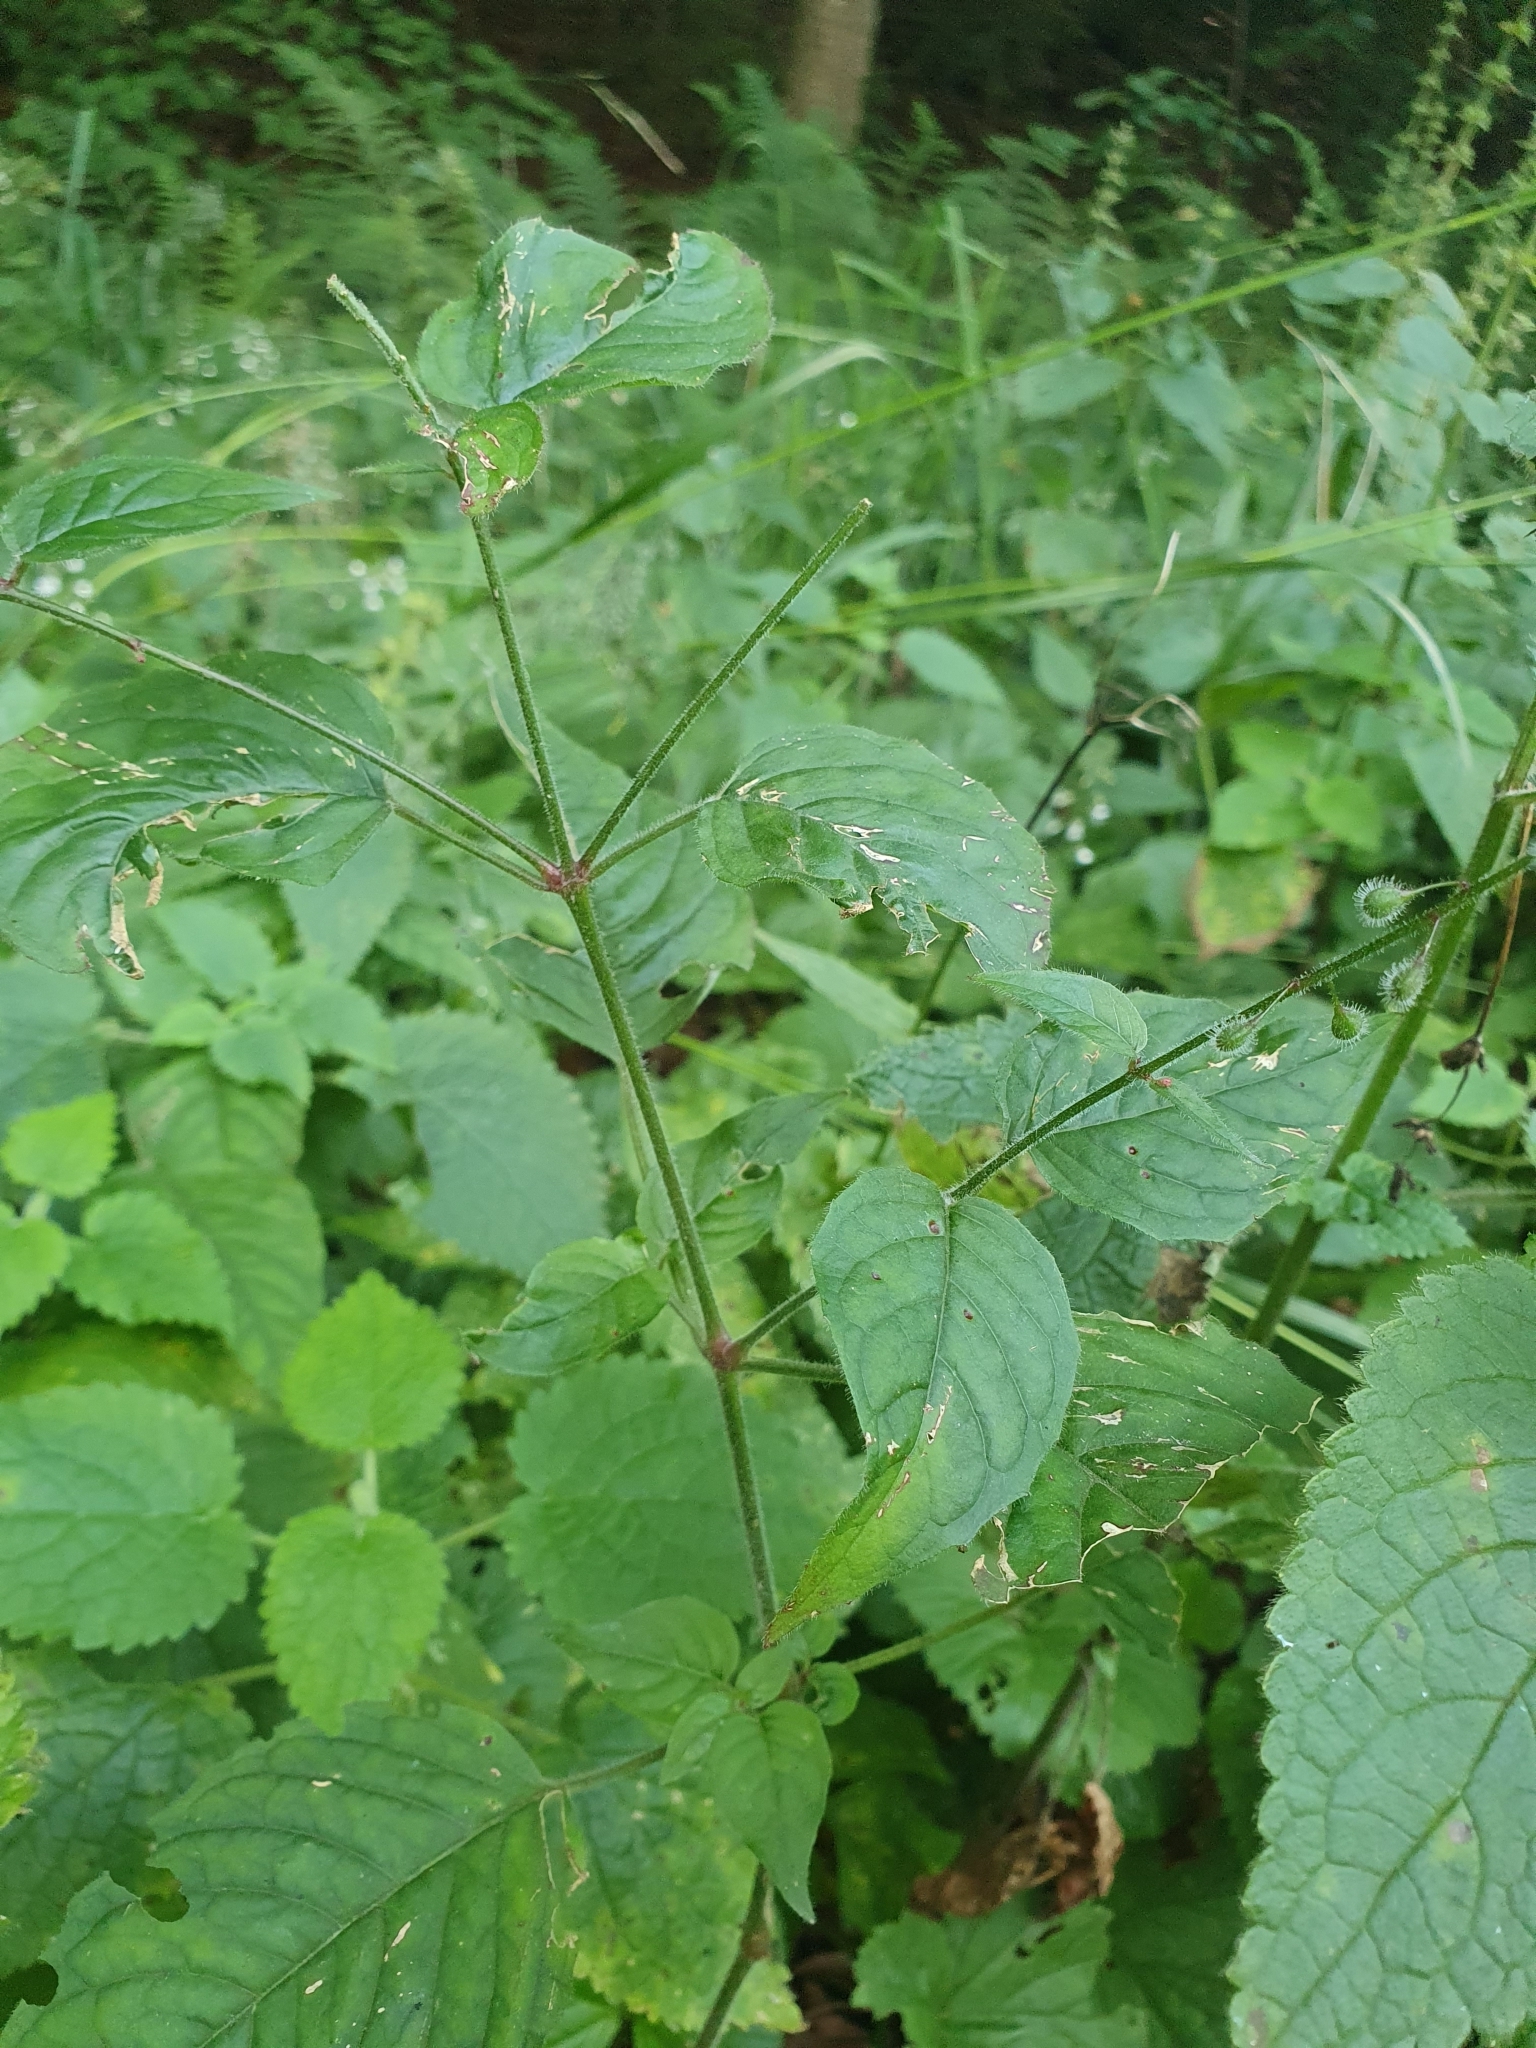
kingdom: Plantae
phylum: Tracheophyta
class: Magnoliopsida
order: Myrtales
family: Onagraceae
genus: Circaea
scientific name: Circaea lutetiana
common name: Enchanter's-nightshade
